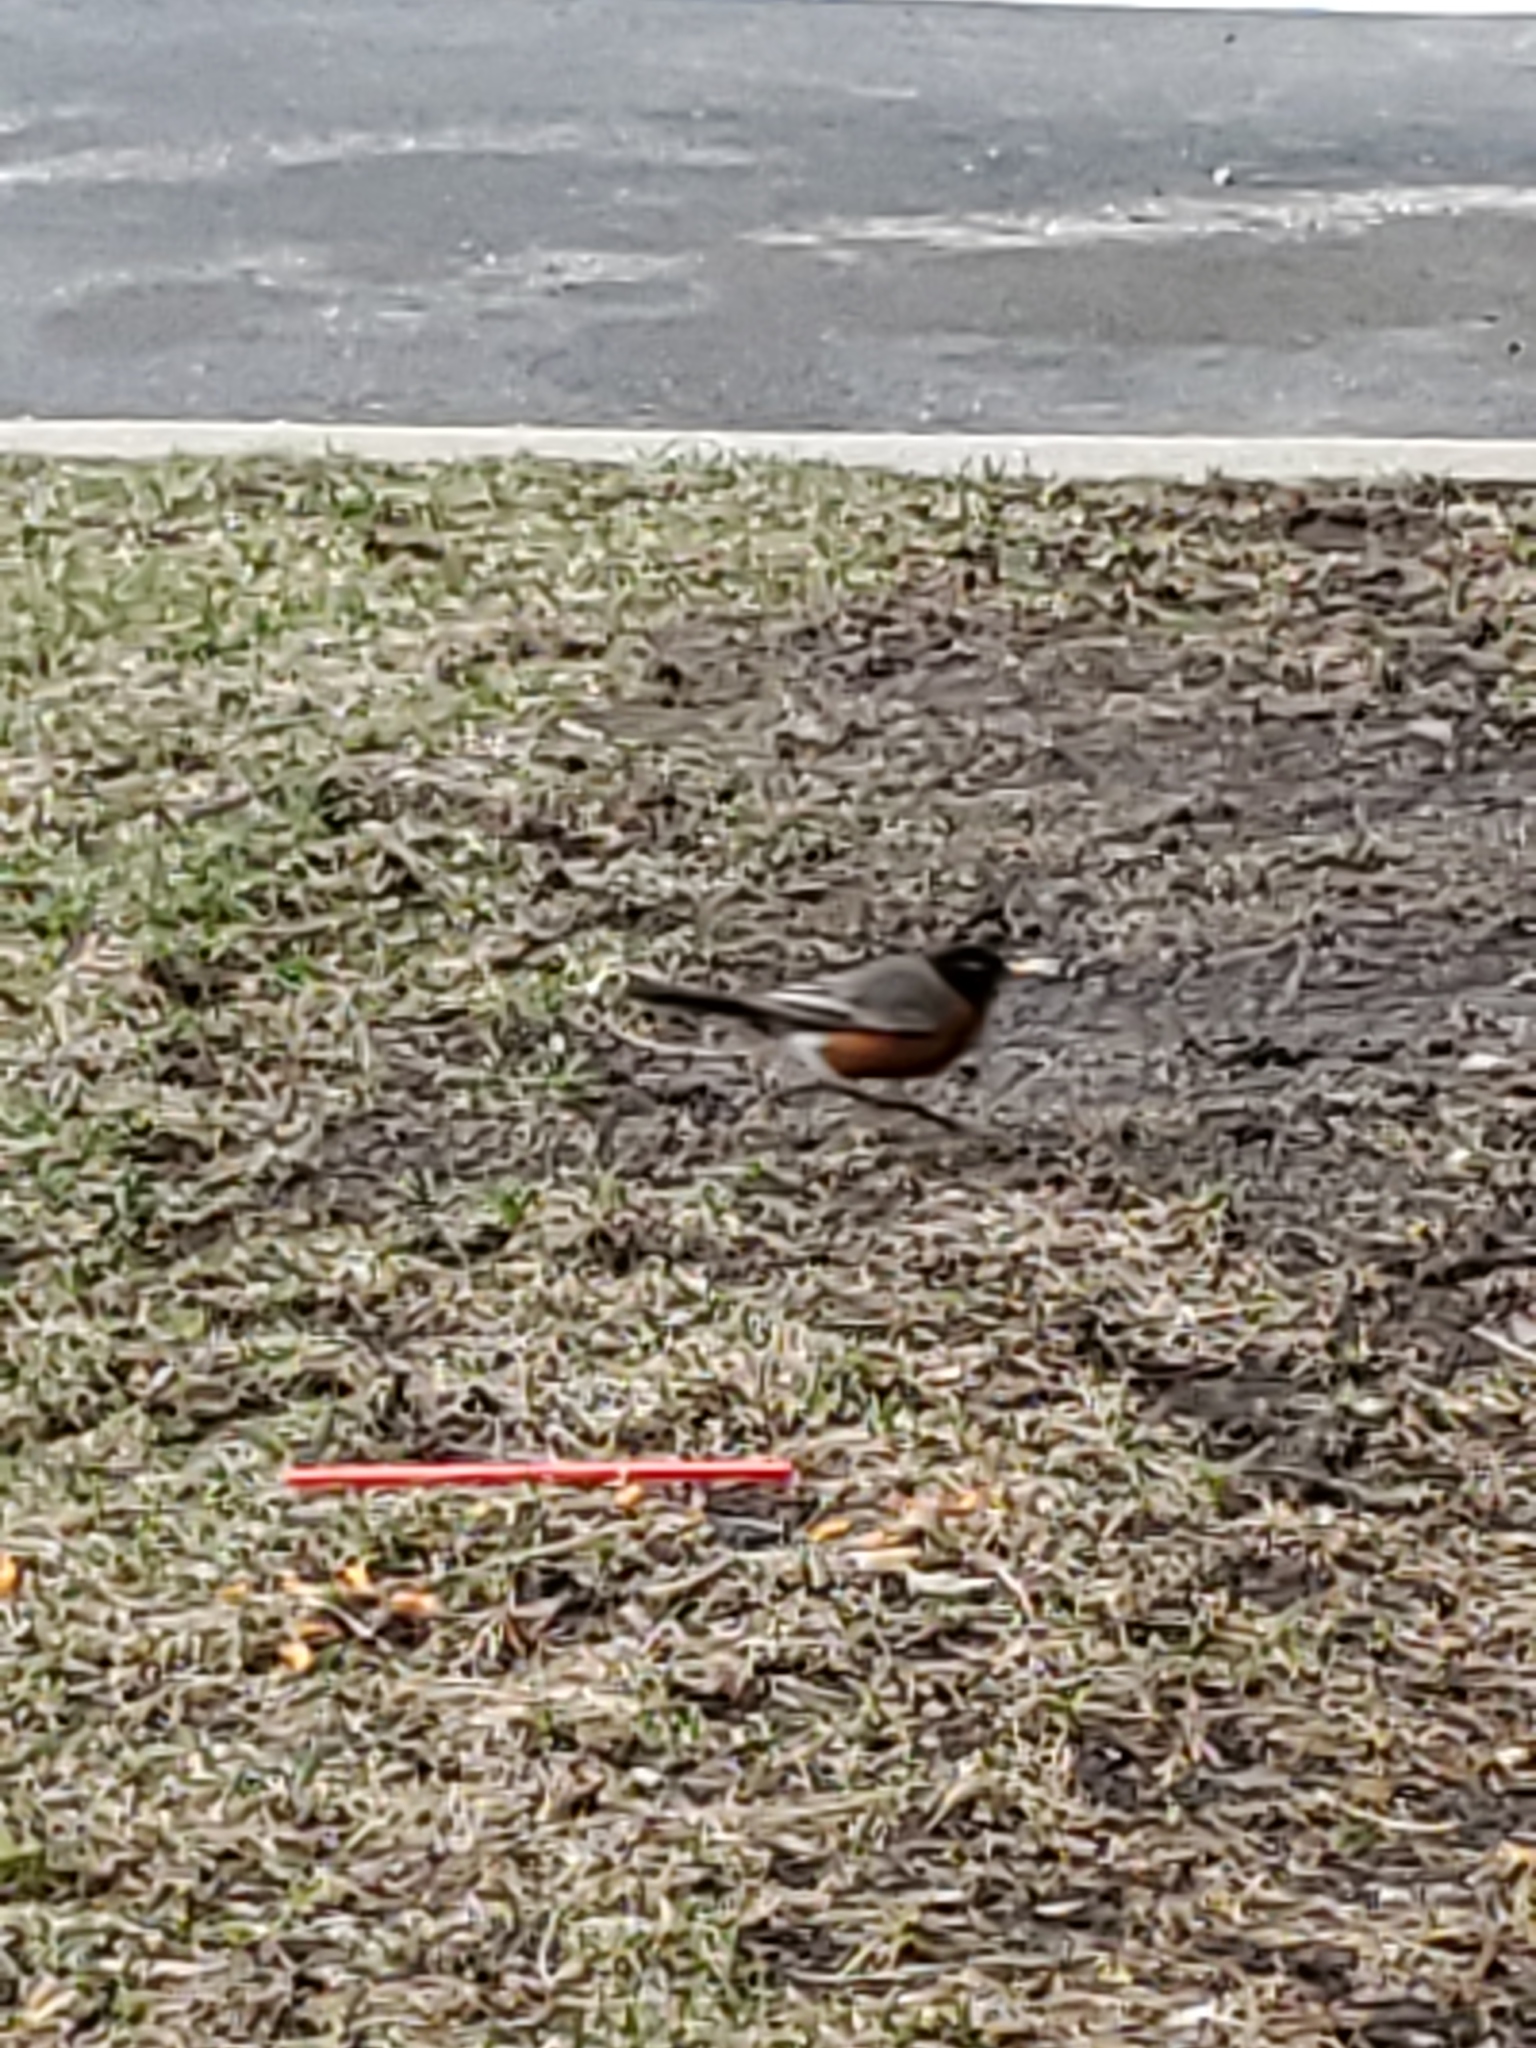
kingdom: Animalia
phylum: Chordata
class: Aves
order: Passeriformes
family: Turdidae
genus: Turdus
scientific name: Turdus migratorius
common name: American robin
